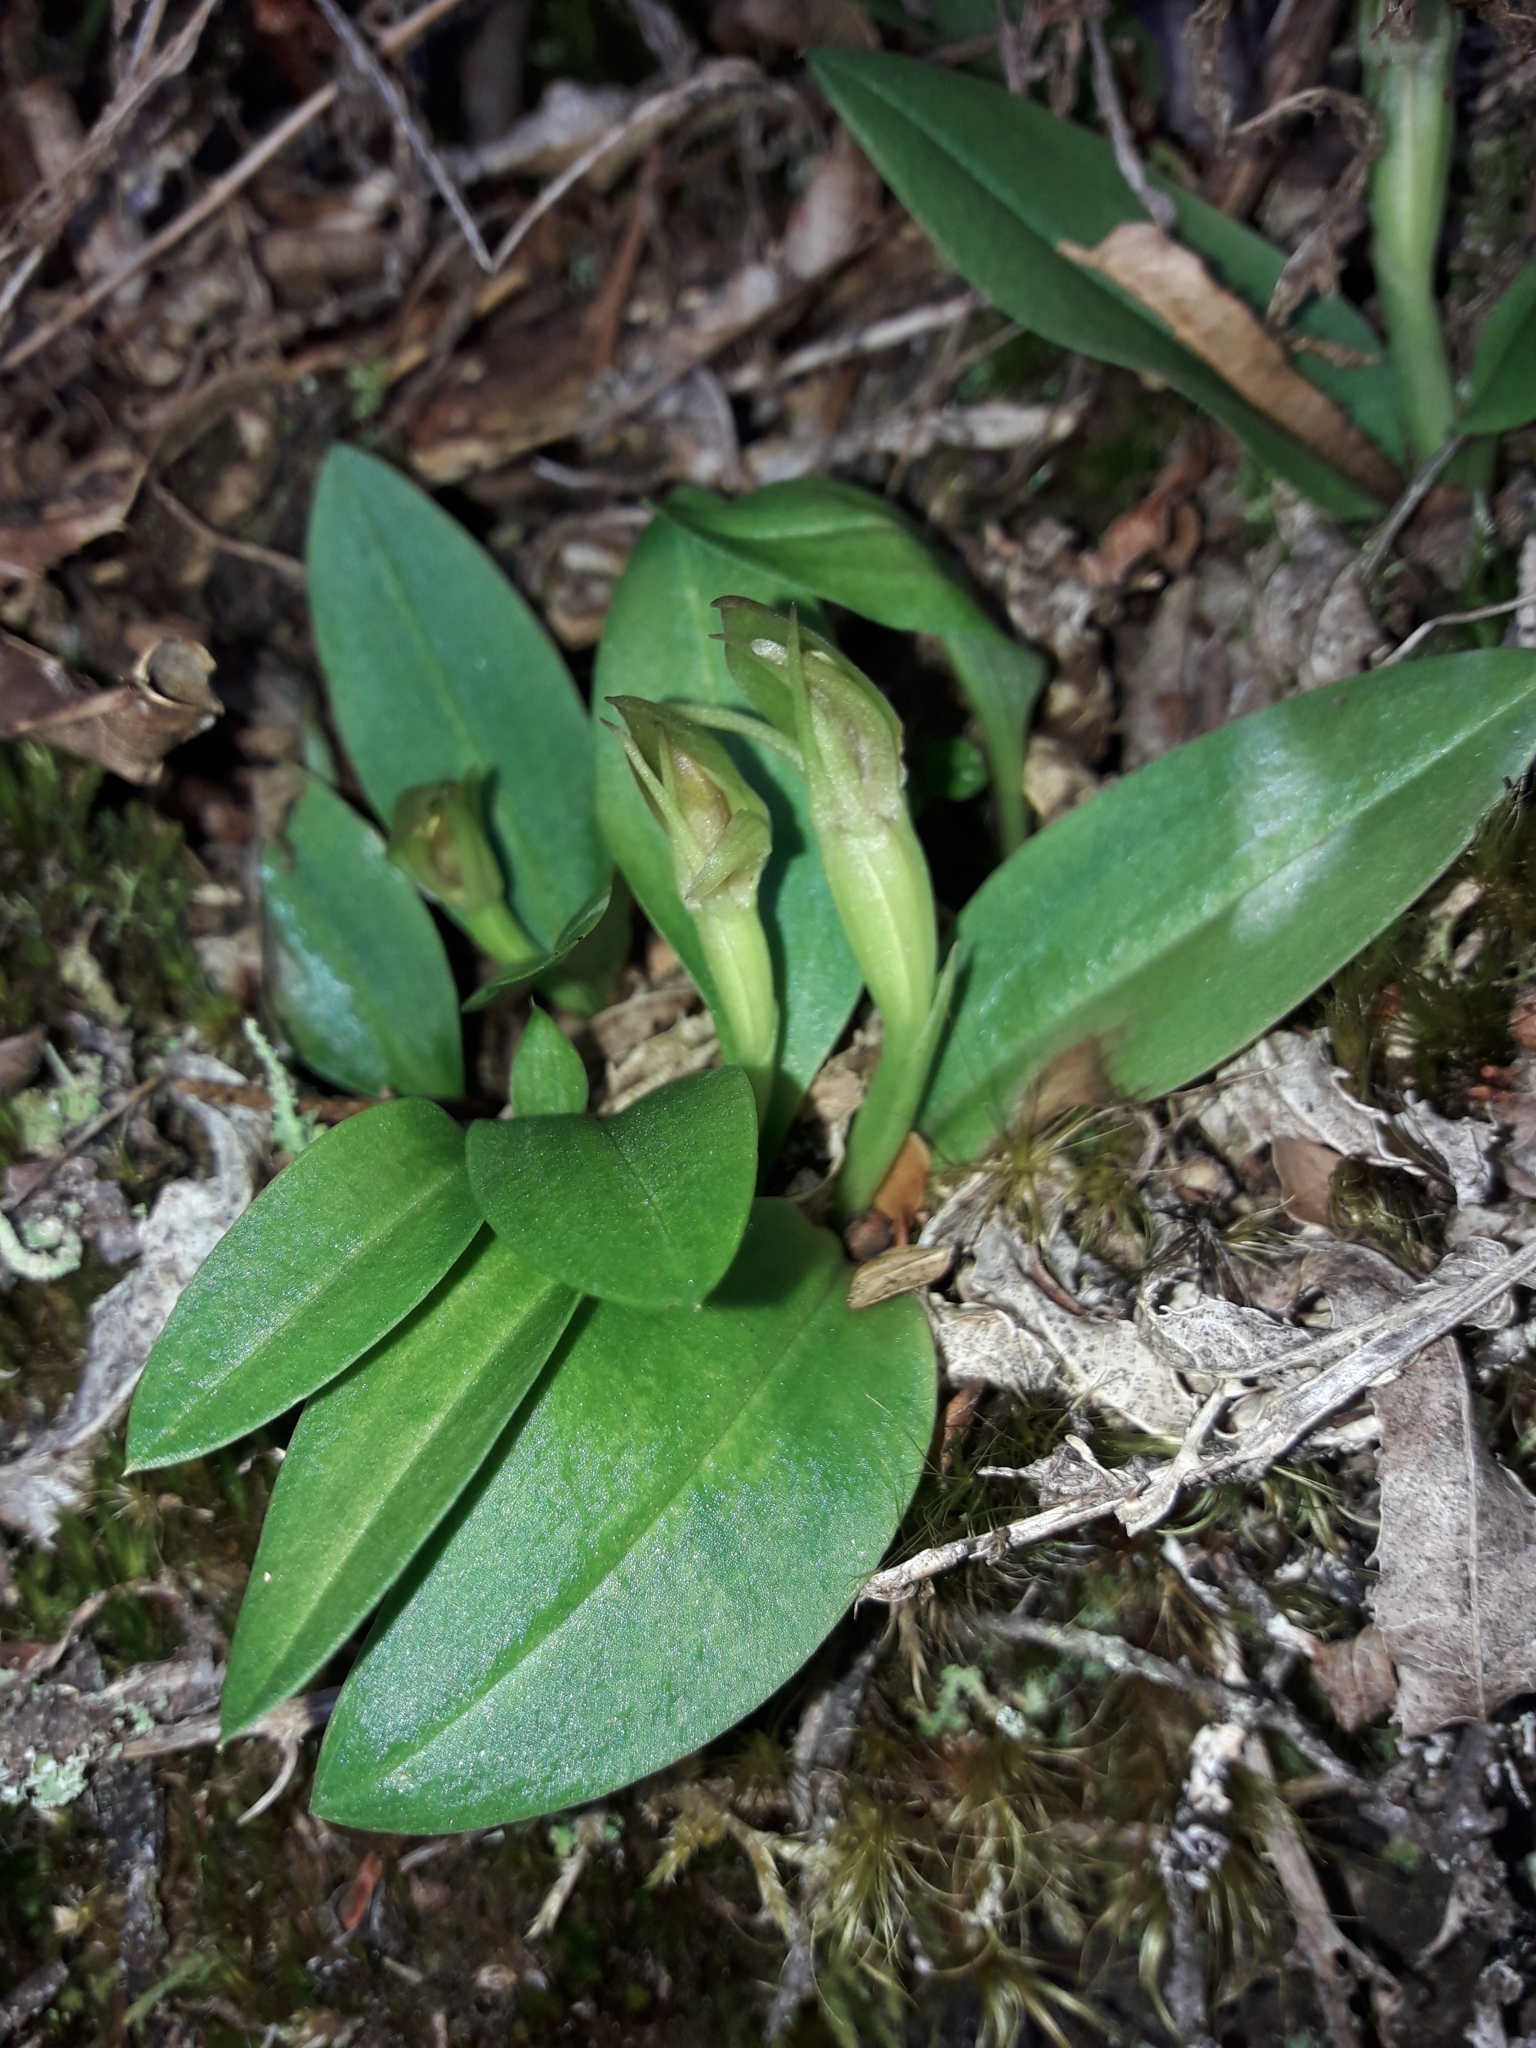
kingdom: Plantae
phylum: Tracheophyta
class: Liliopsida
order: Asparagales
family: Orchidaceae
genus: Chiloglottis
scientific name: Chiloglottis cornuta
